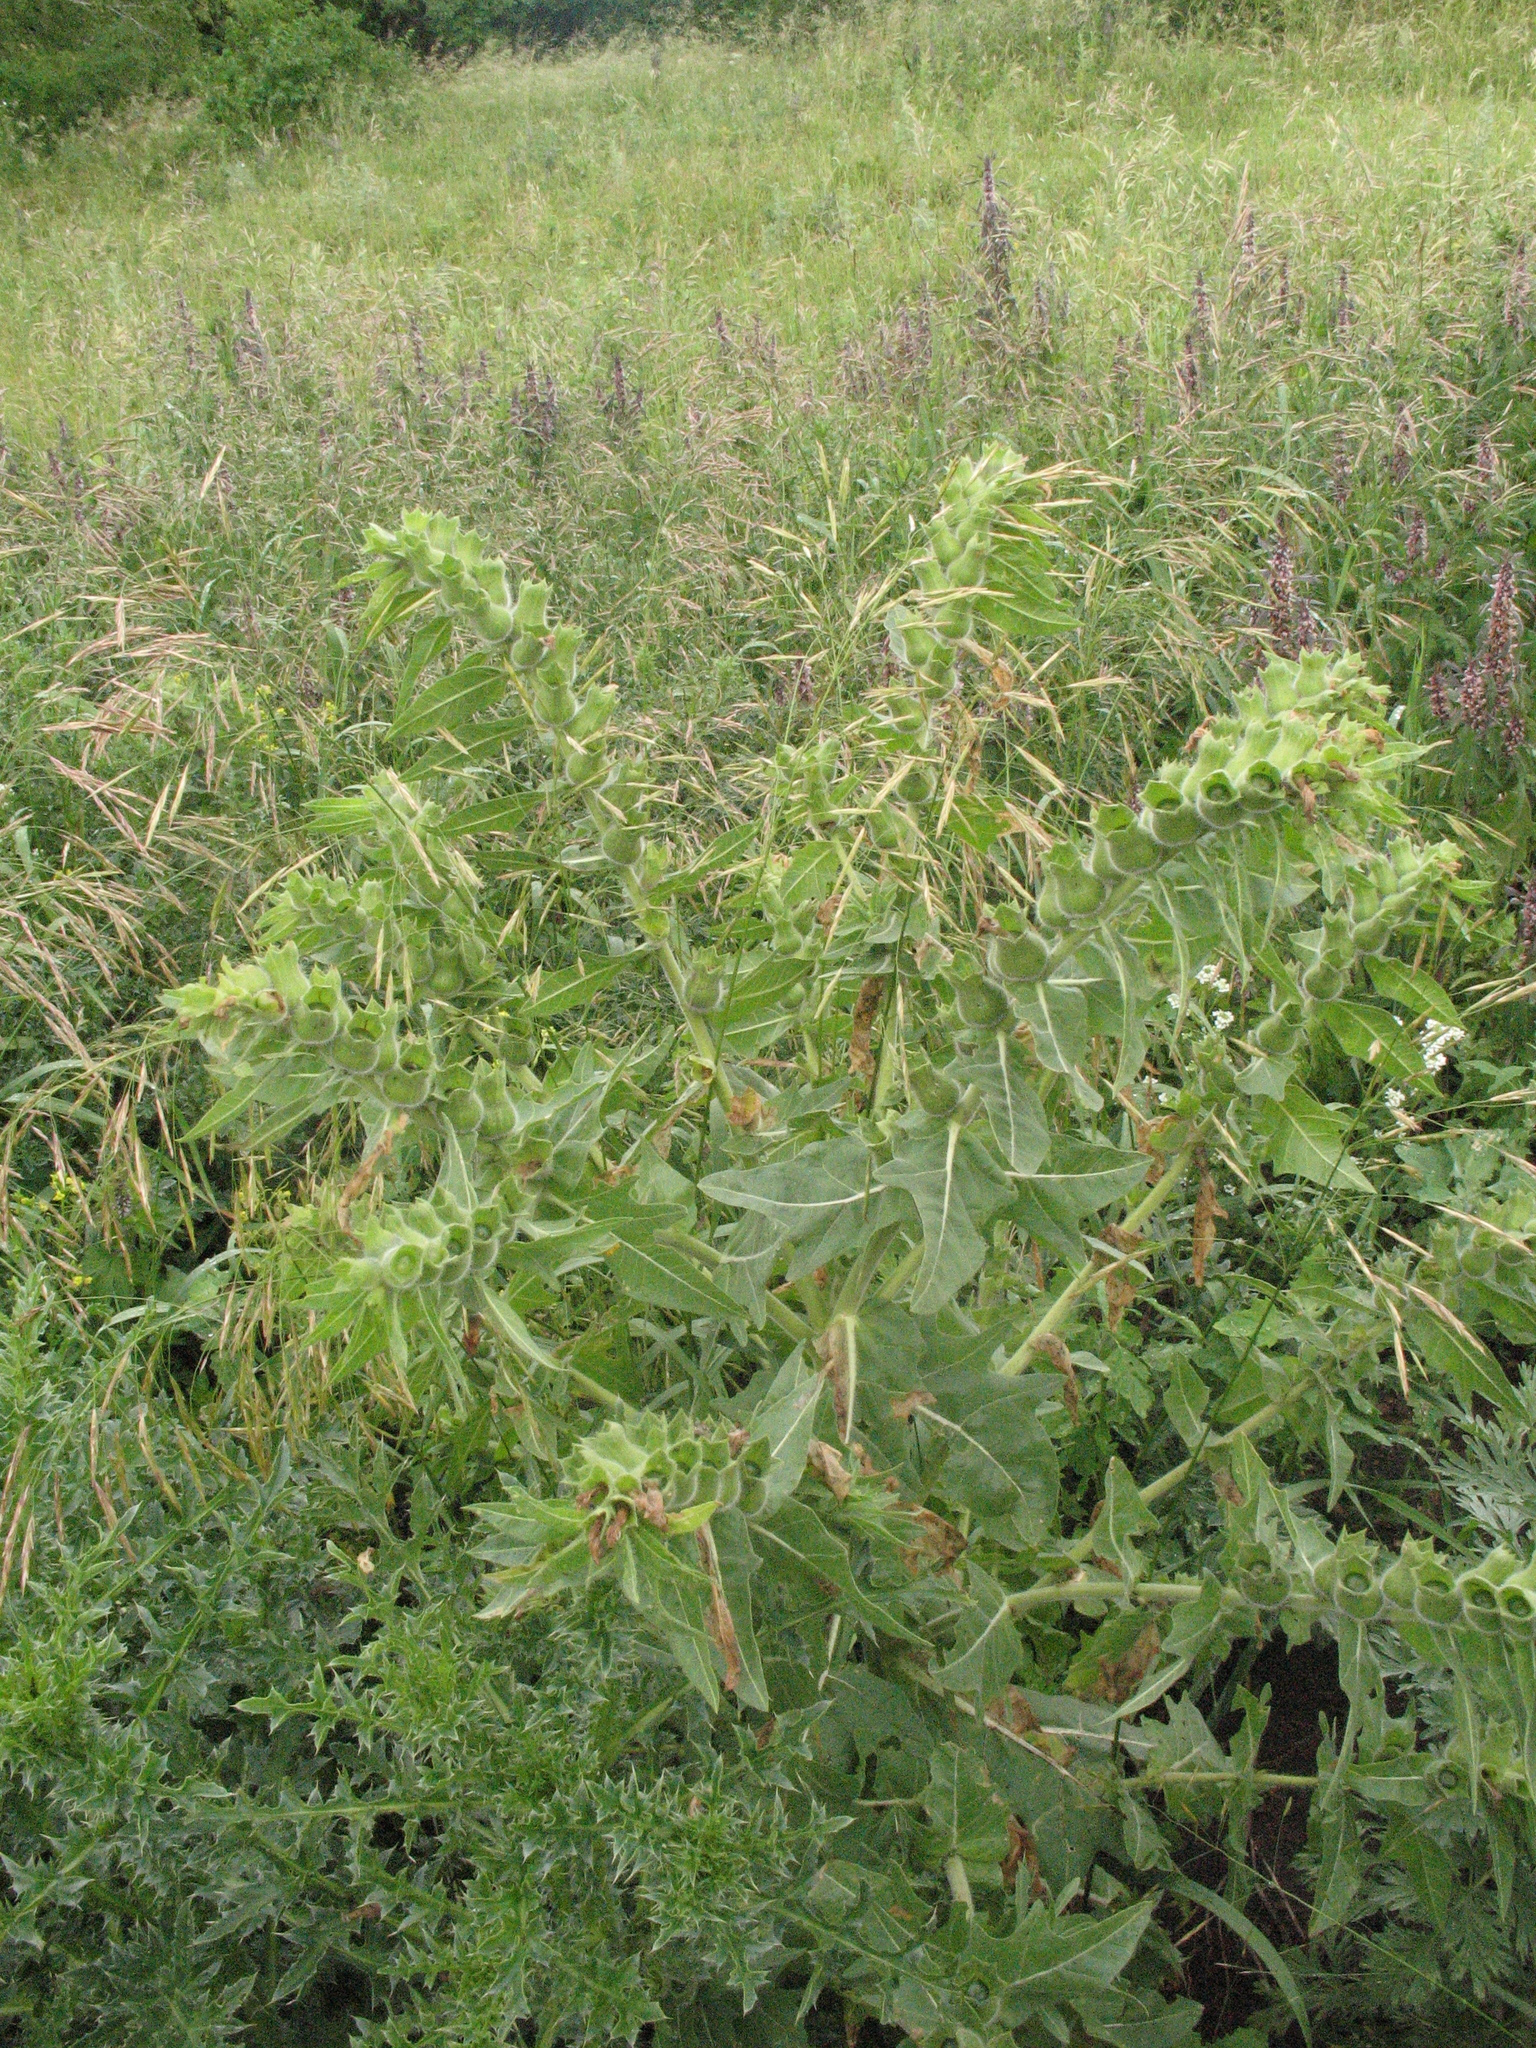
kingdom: Plantae
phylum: Tracheophyta
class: Magnoliopsida
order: Solanales
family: Solanaceae
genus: Hyoscyamus
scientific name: Hyoscyamus niger
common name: Henbane
